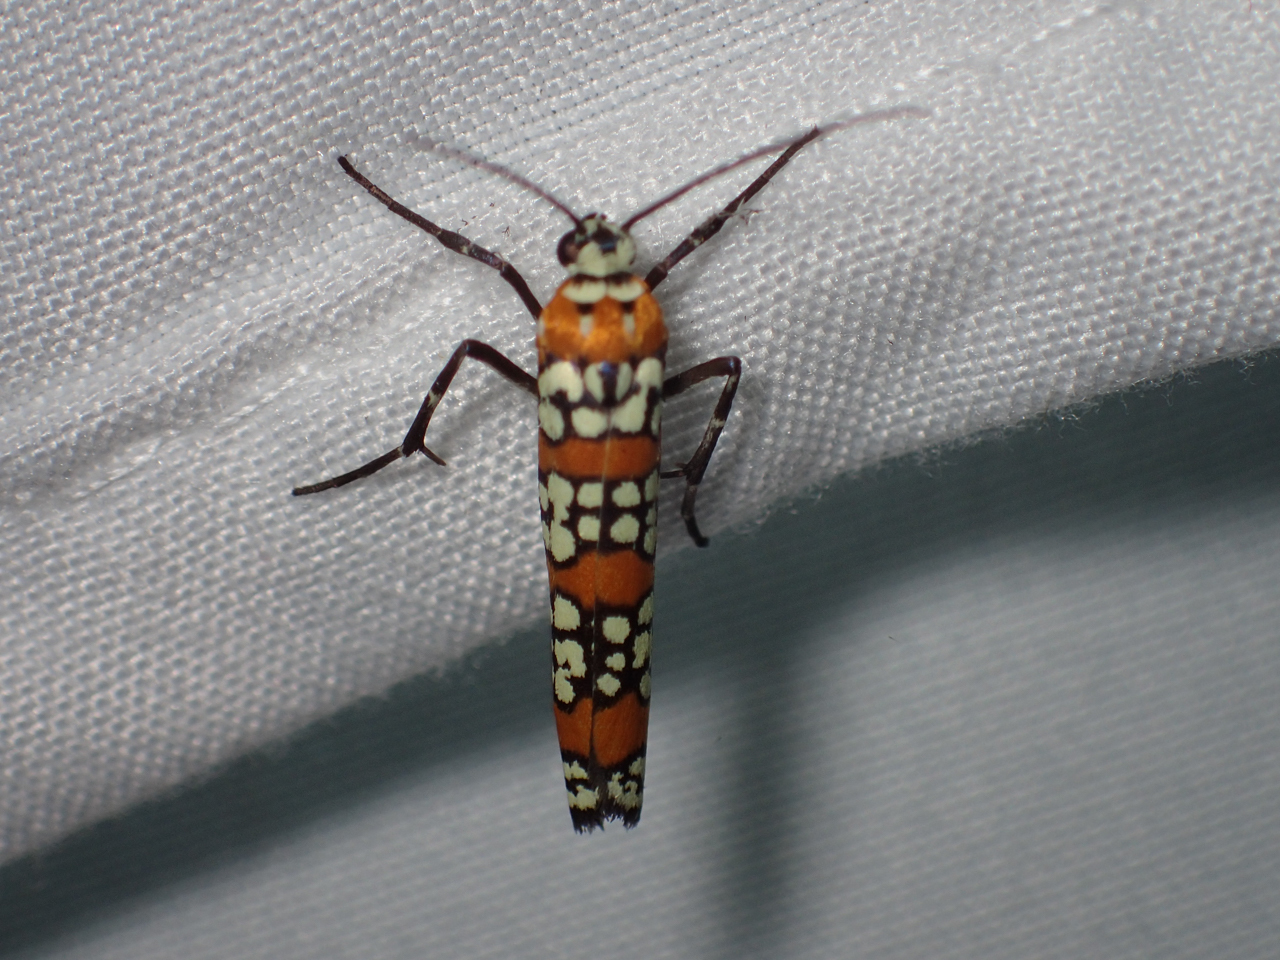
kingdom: Animalia
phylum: Arthropoda
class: Insecta
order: Lepidoptera
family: Attevidae
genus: Atteva
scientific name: Atteva punctella
